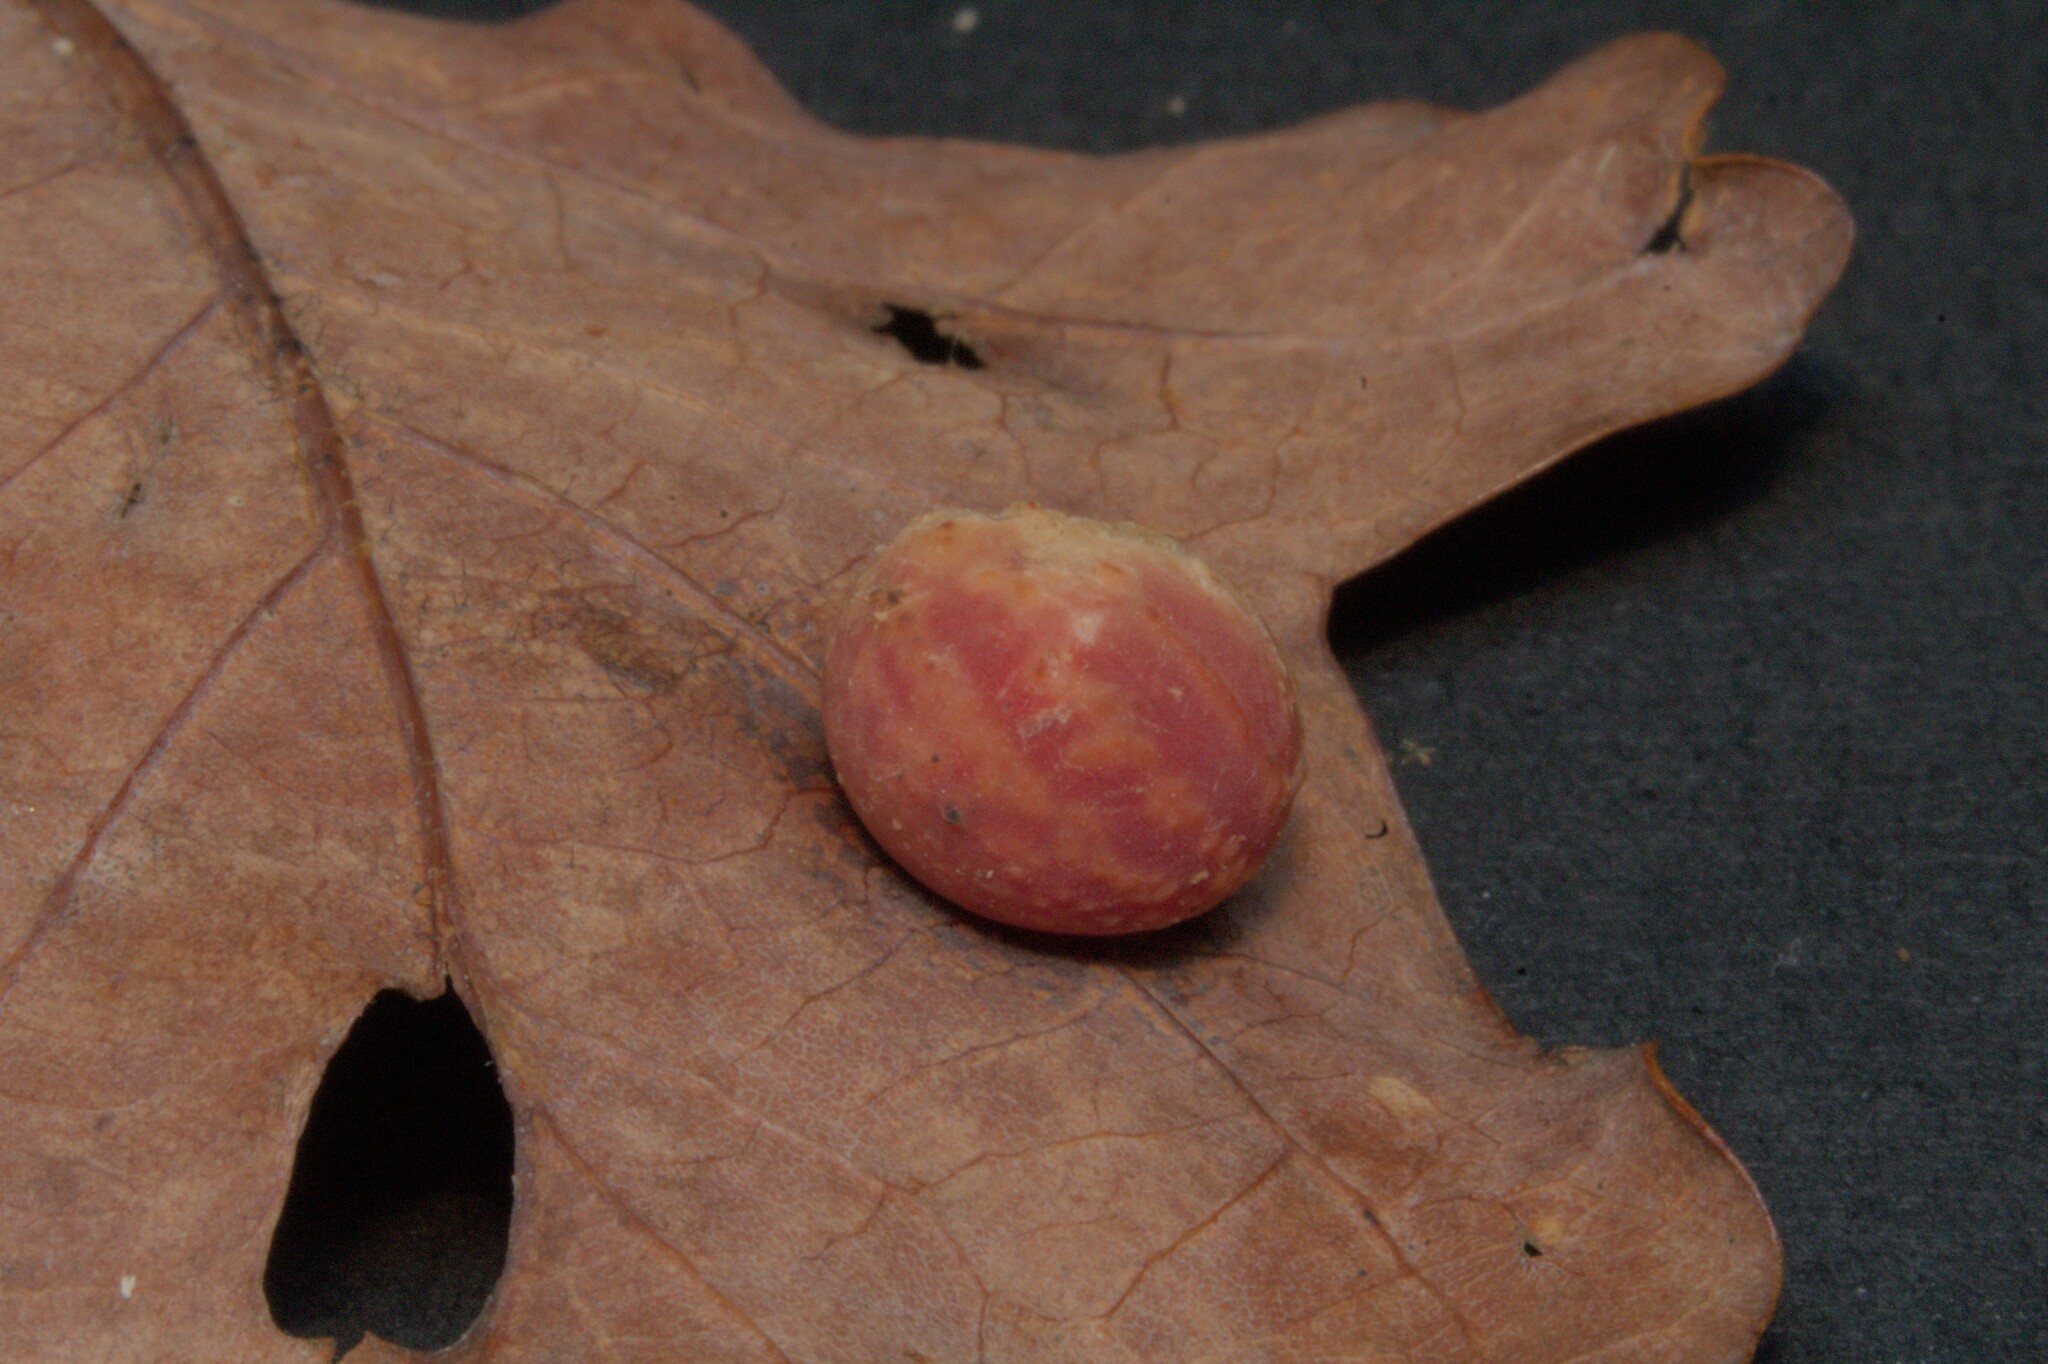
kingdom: Animalia
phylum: Arthropoda
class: Insecta
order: Hymenoptera
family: Cynipidae
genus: Cynips
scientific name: Cynips longiventris
